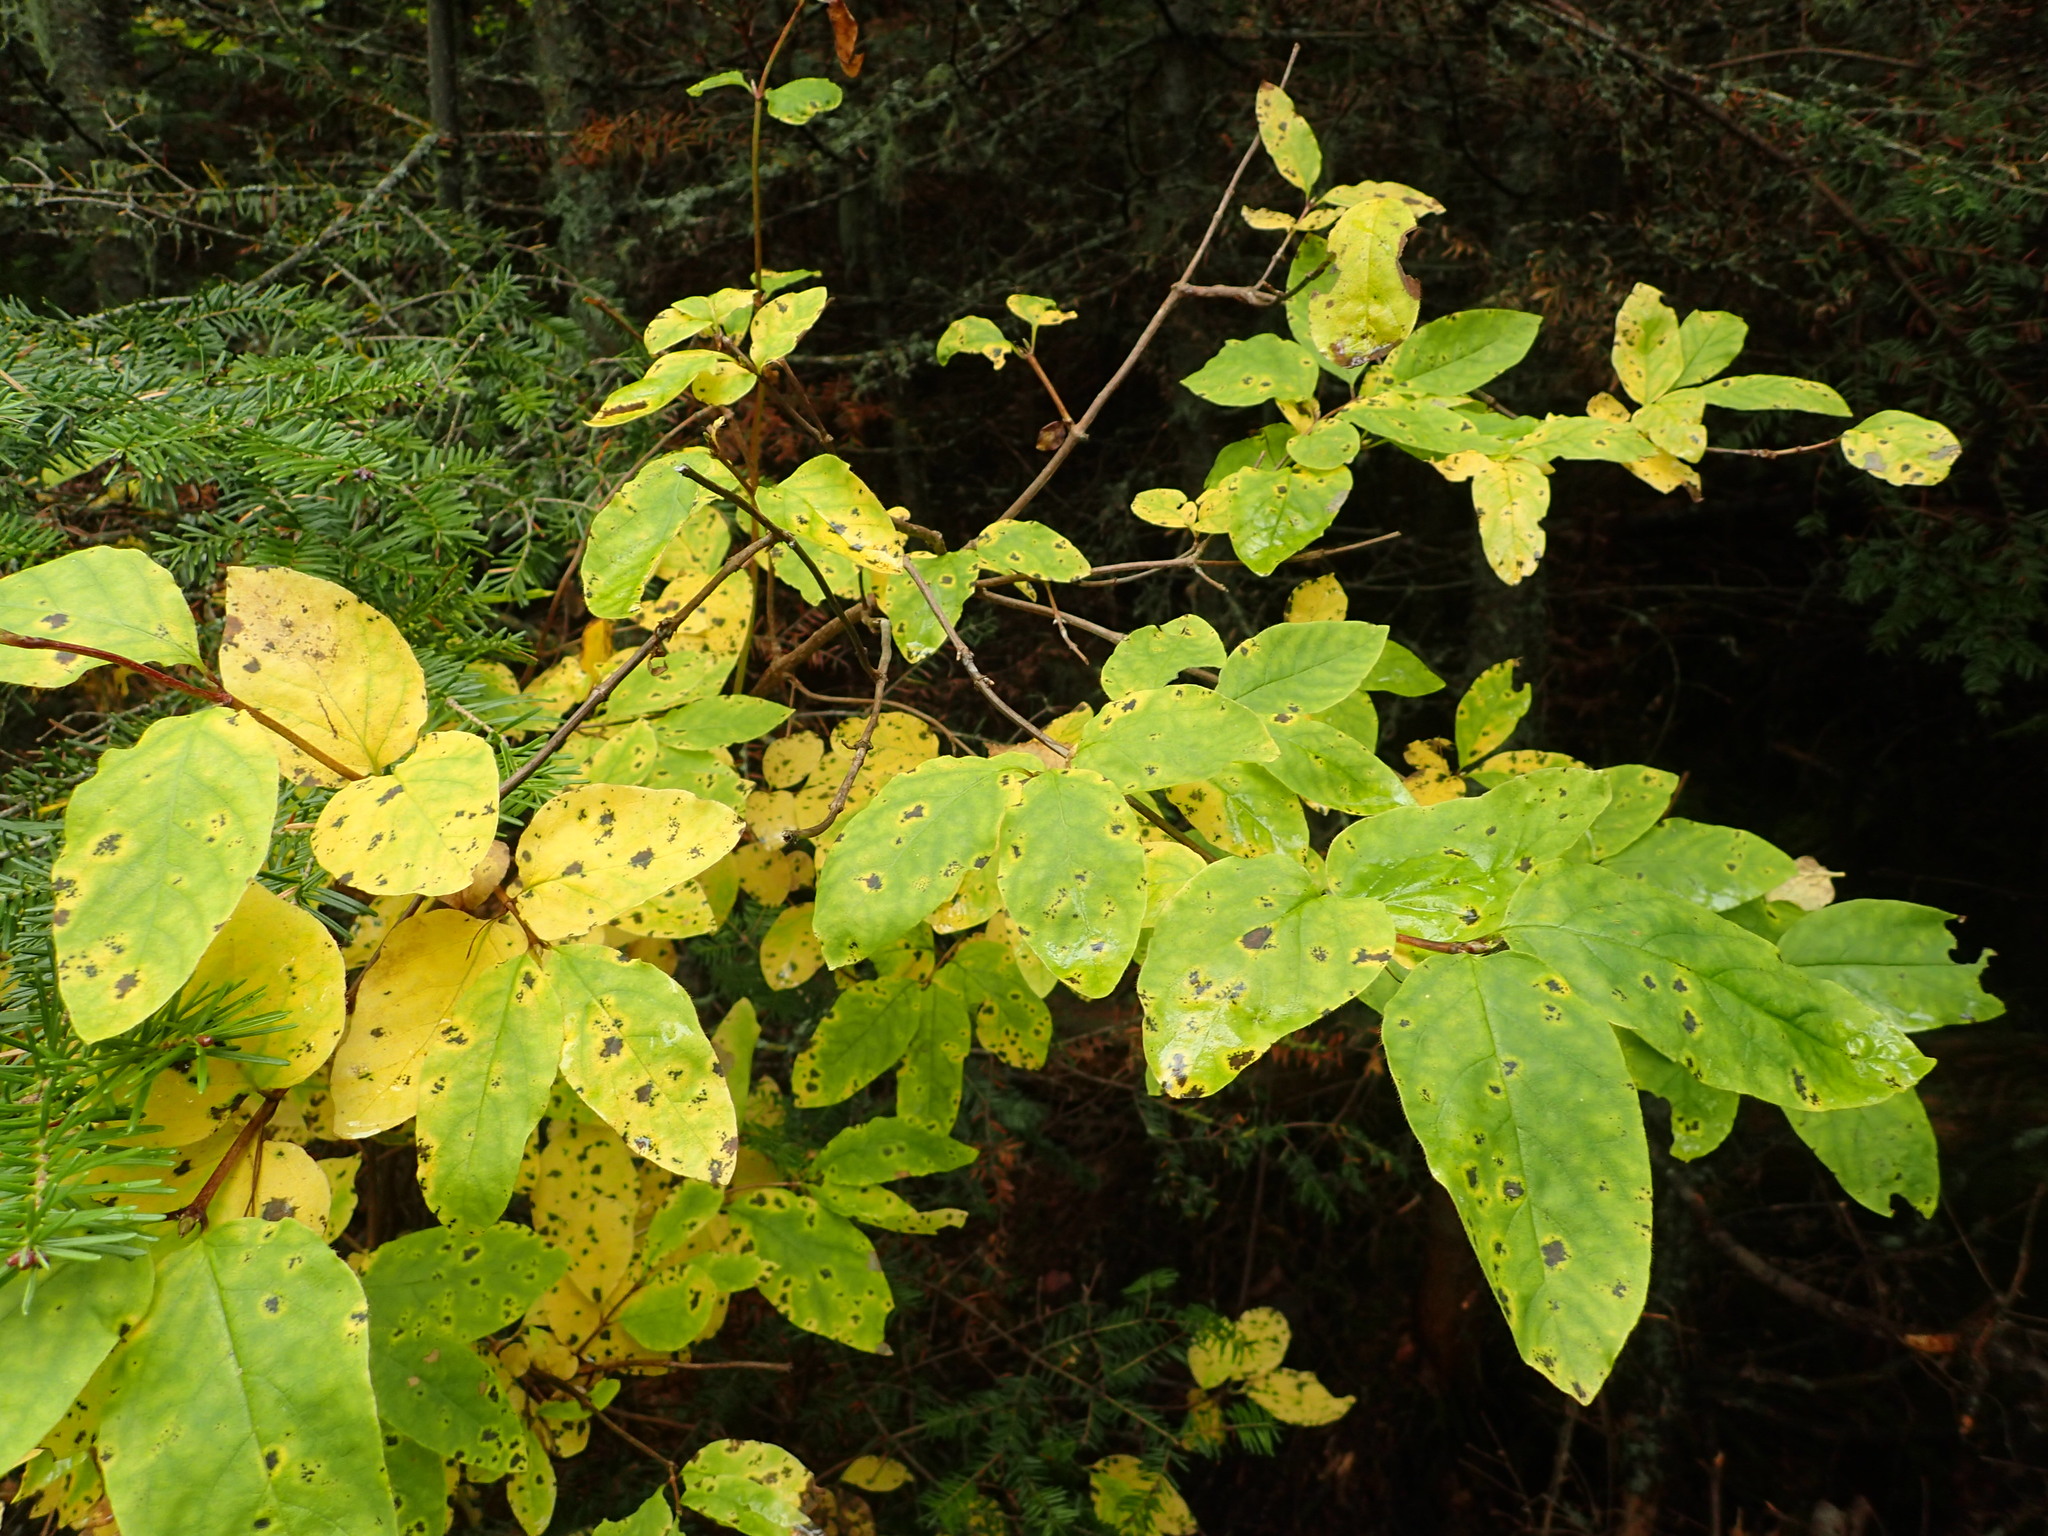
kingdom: Plantae
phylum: Tracheophyta
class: Magnoliopsida
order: Dipsacales
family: Caprifoliaceae
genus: Lonicera
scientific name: Lonicera canadensis
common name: American fly-honeysuckle
